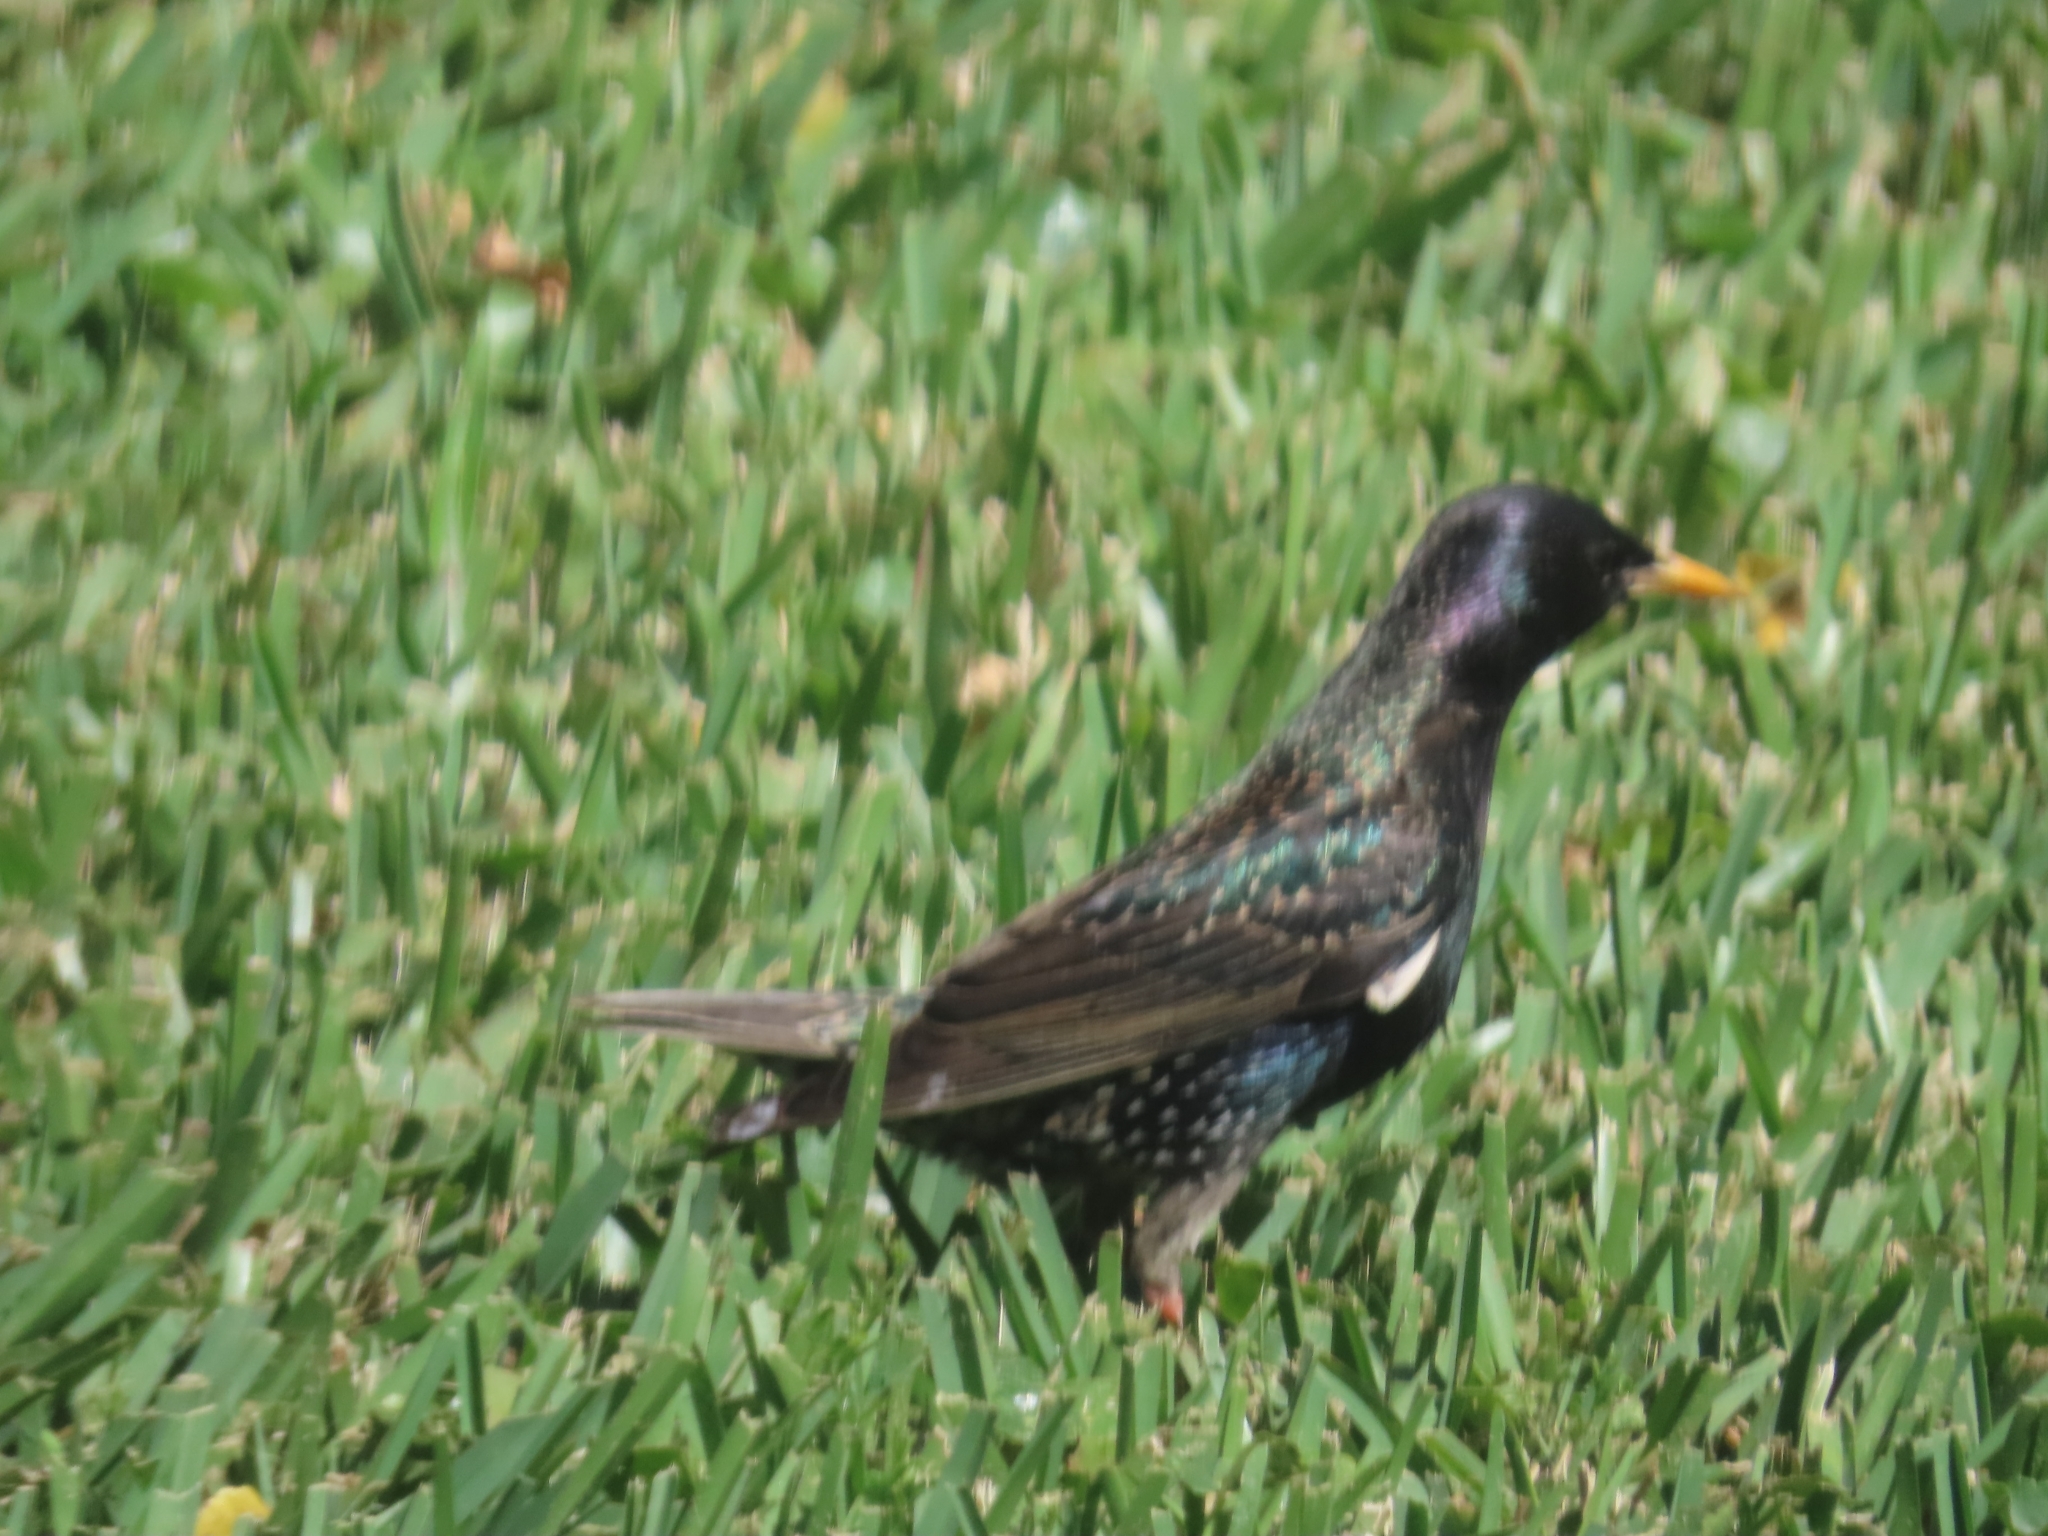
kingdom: Animalia
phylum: Chordata
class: Aves
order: Passeriformes
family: Sturnidae
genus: Sturnus
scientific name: Sturnus vulgaris
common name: Common starling
